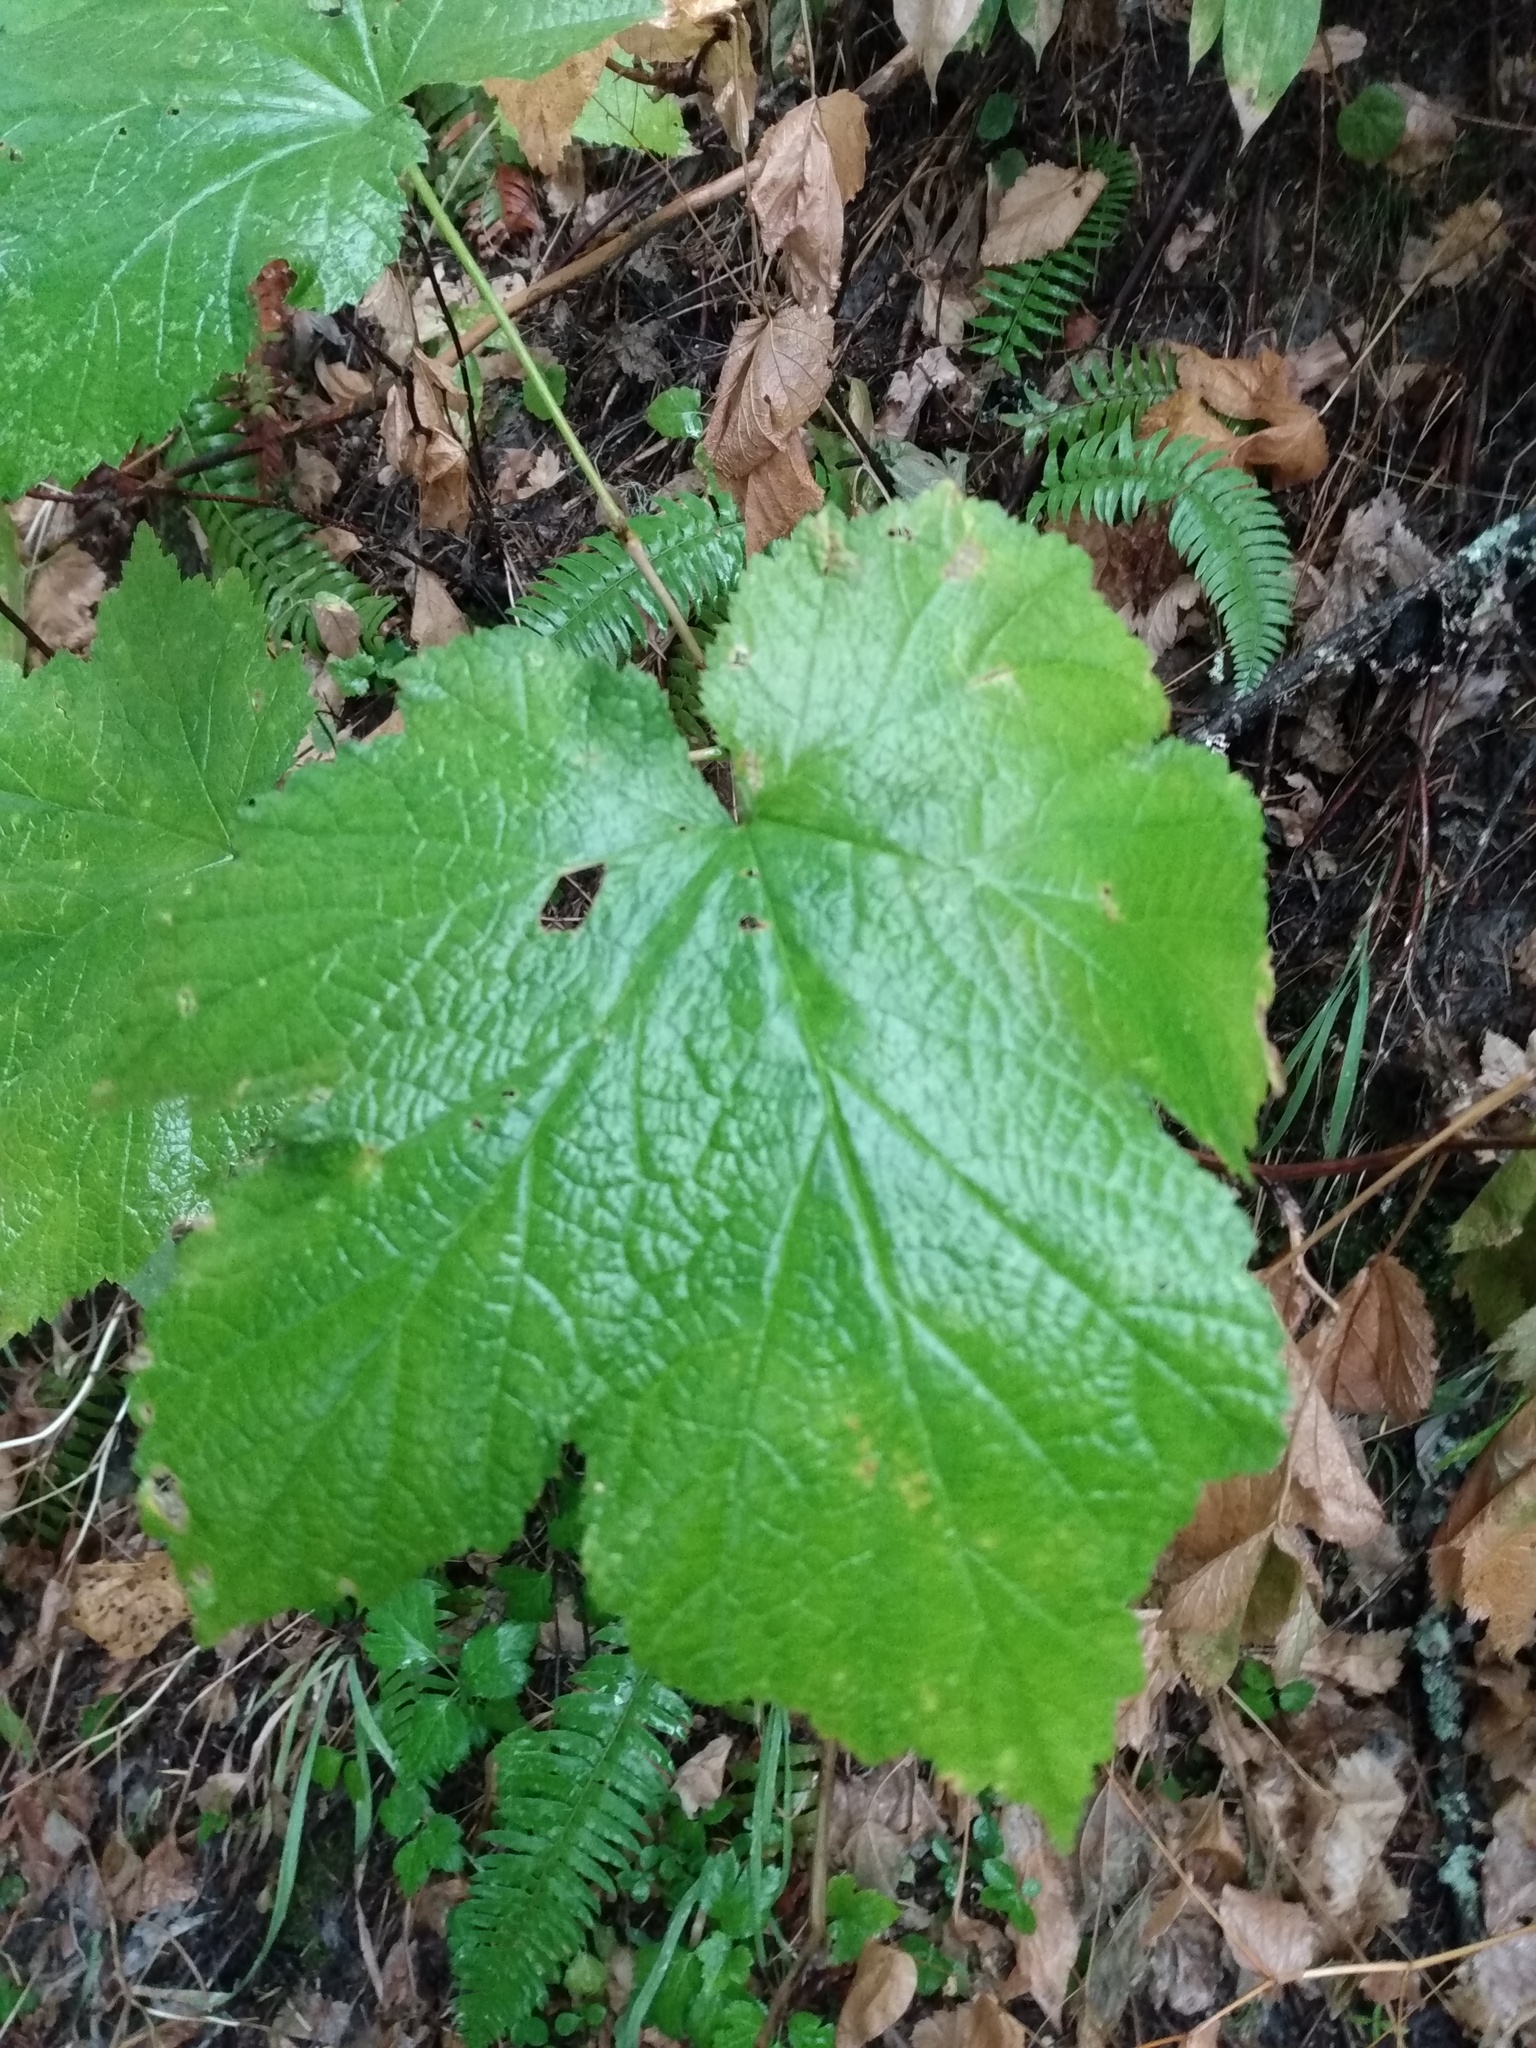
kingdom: Plantae
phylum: Tracheophyta
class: Magnoliopsida
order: Rosales
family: Rosaceae
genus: Rubus
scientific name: Rubus parviflorus
